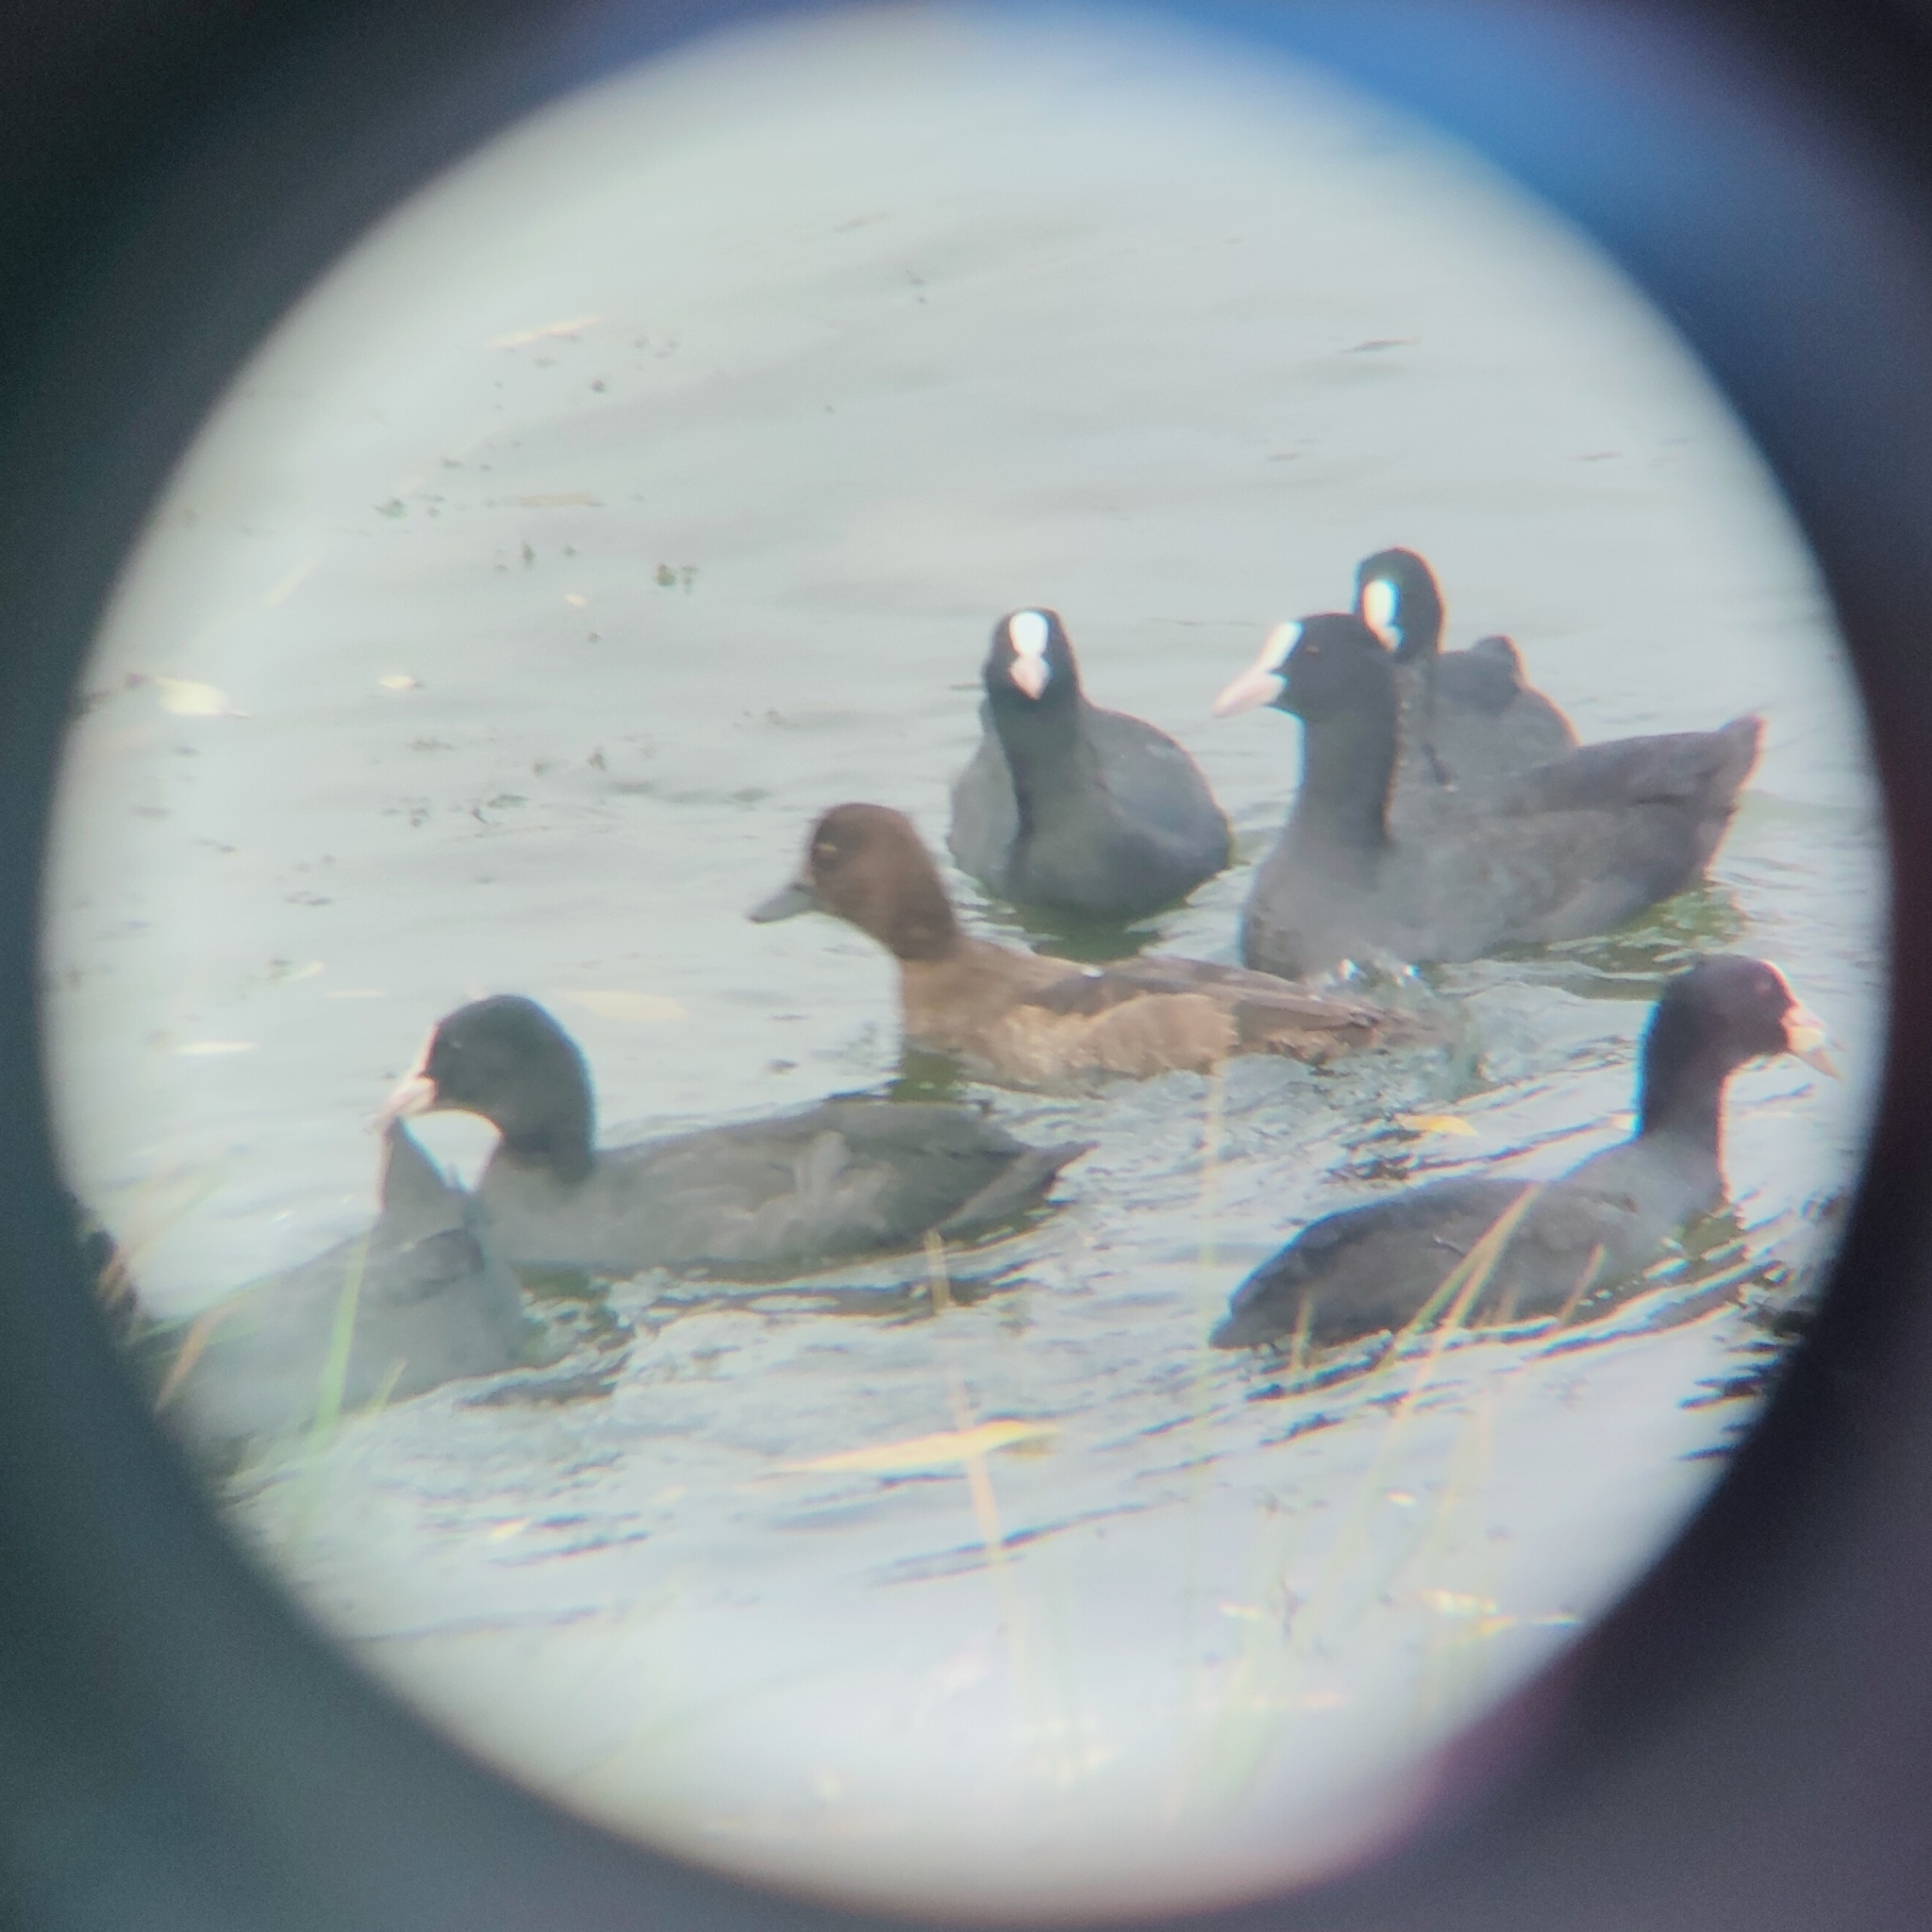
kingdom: Animalia
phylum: Chordata
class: Aves
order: Anseriformes
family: Anatidae
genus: Aythya
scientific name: Aythya fuligula
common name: Tufted duck
